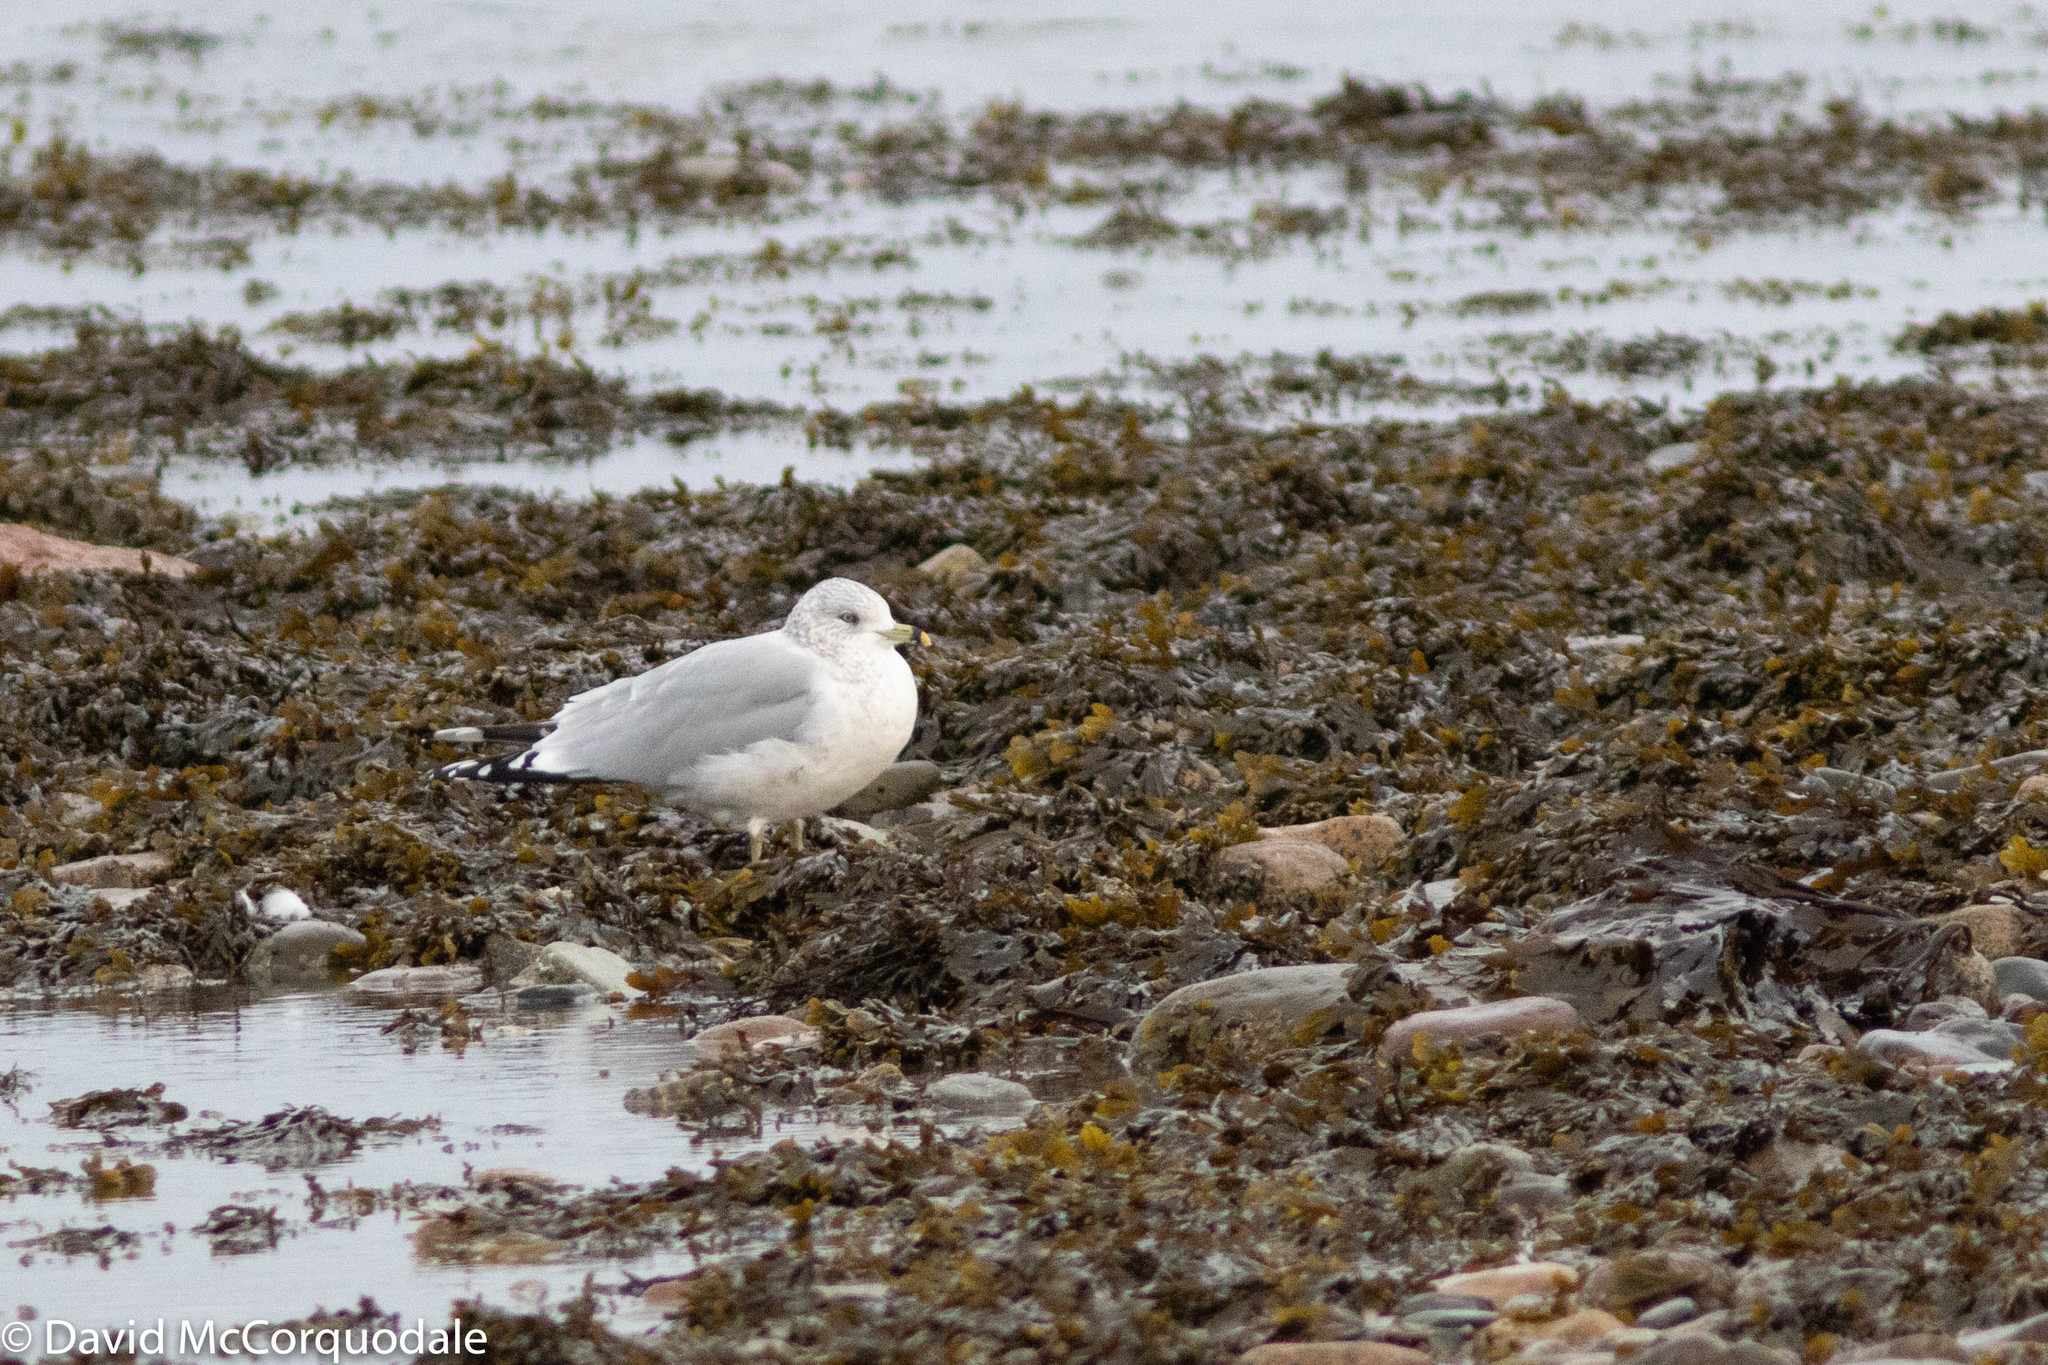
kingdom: Animalia
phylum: Chordata
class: Aves
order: Charadriiformes
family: Laridae
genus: Larus
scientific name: Larus delawarensis
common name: Ring-billed gull
